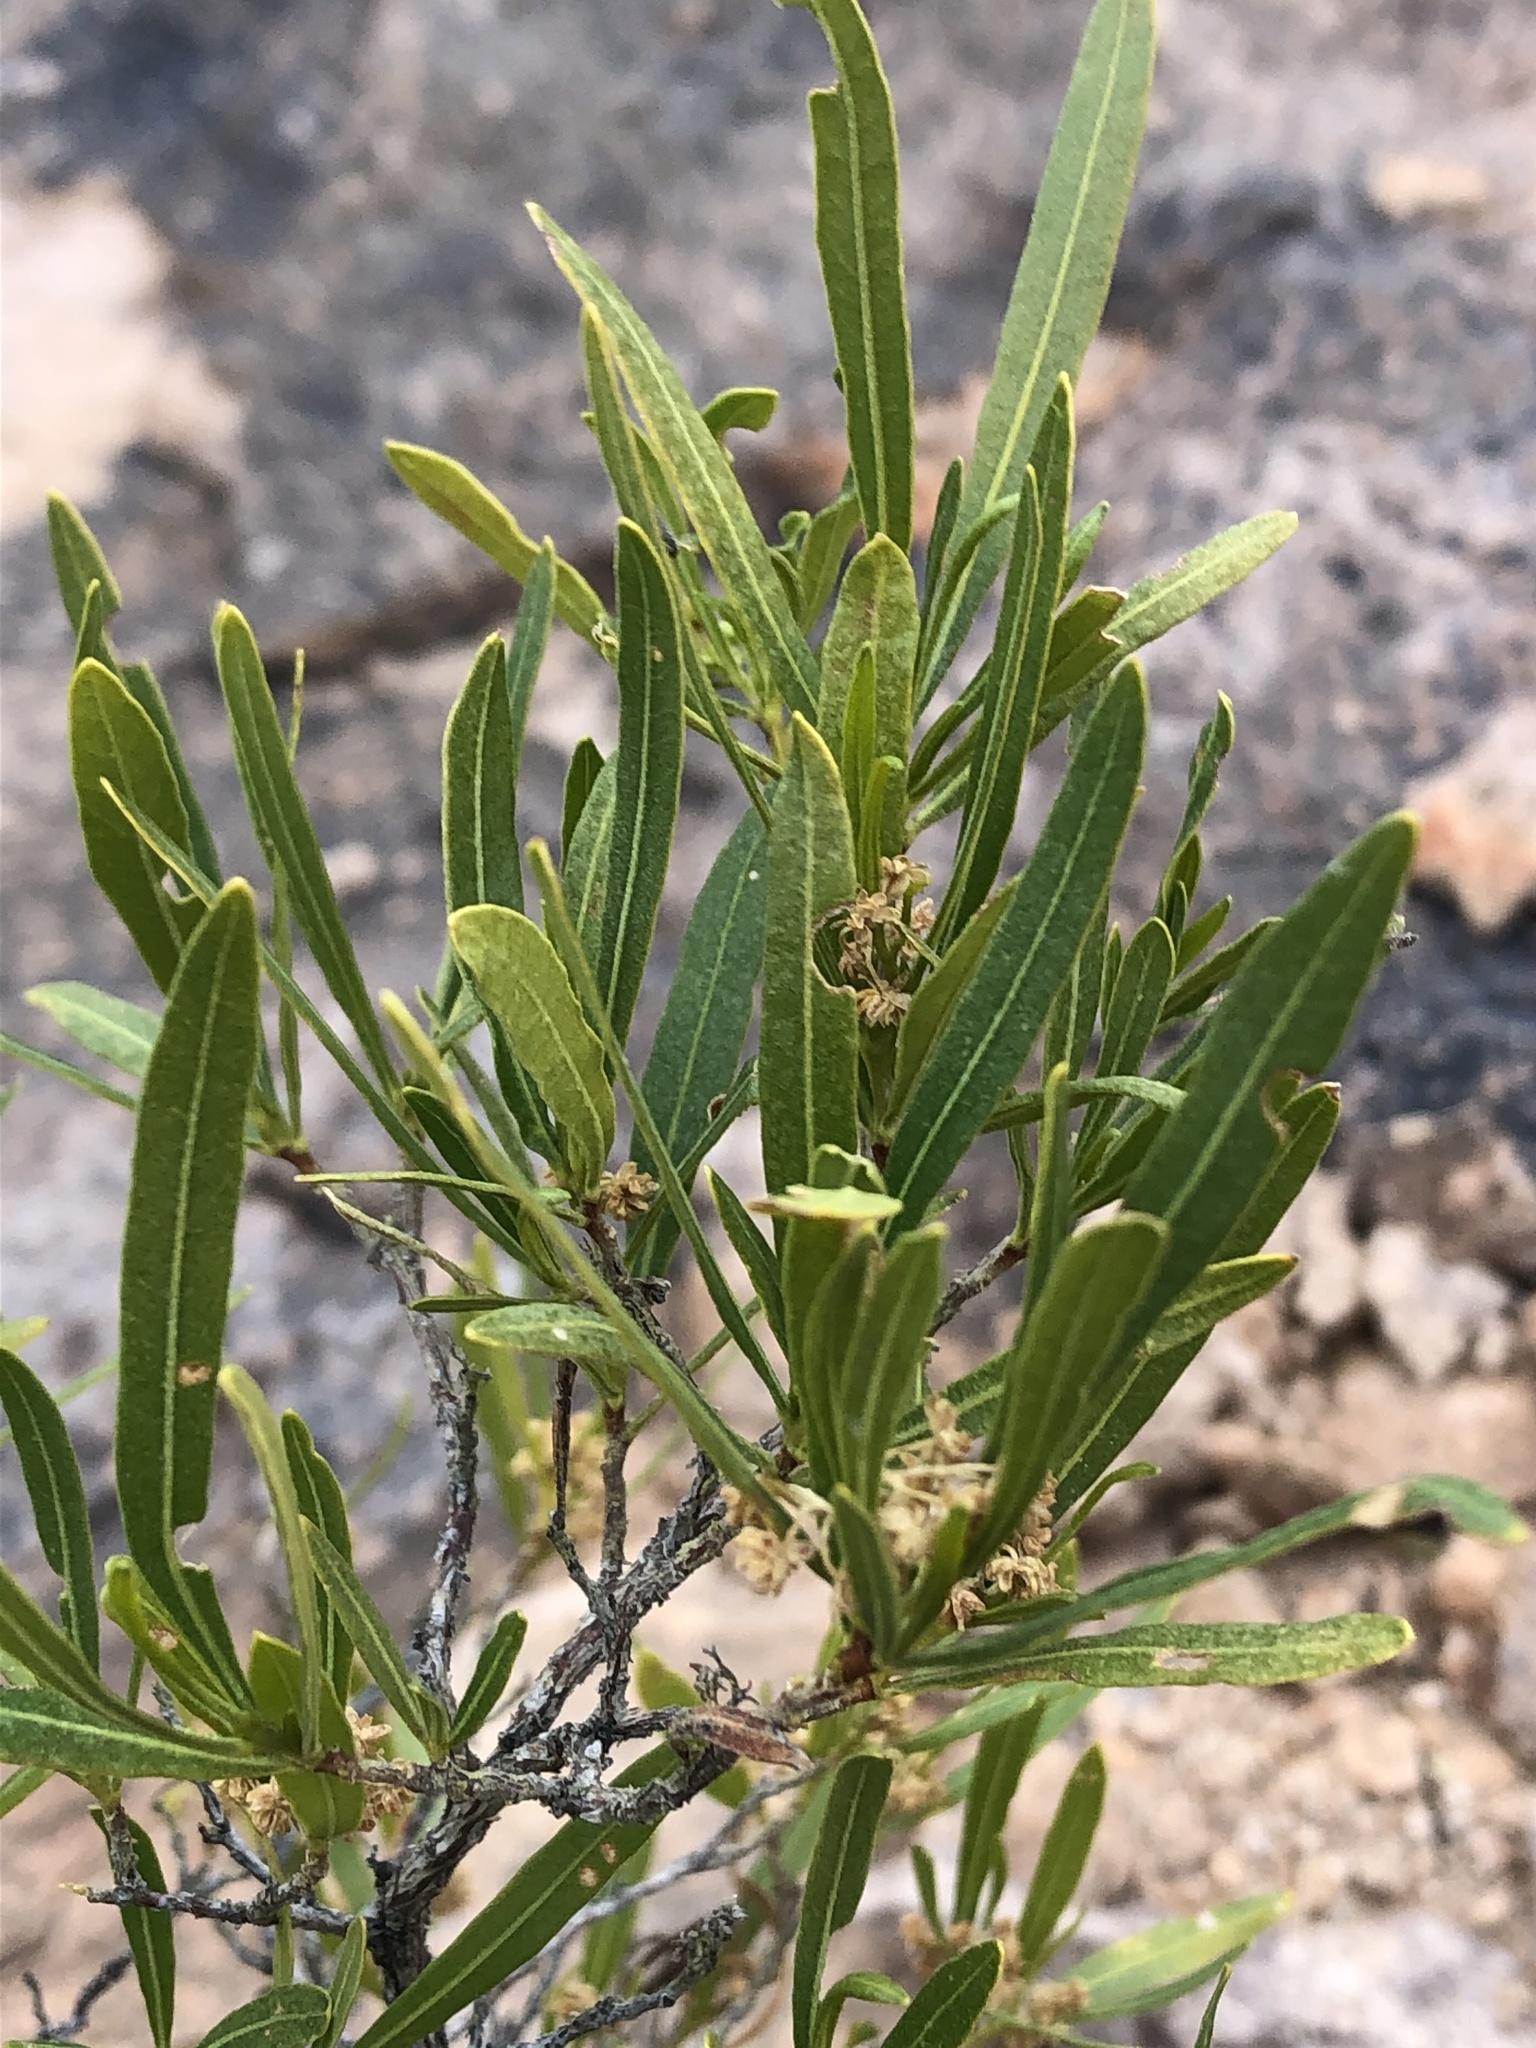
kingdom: Plantae
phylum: Tracheophyta
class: Magnoliopsida
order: Sapindales
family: Sapindaceae
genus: Dodonaea
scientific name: Dodonaea viscosa
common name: Hopbush
